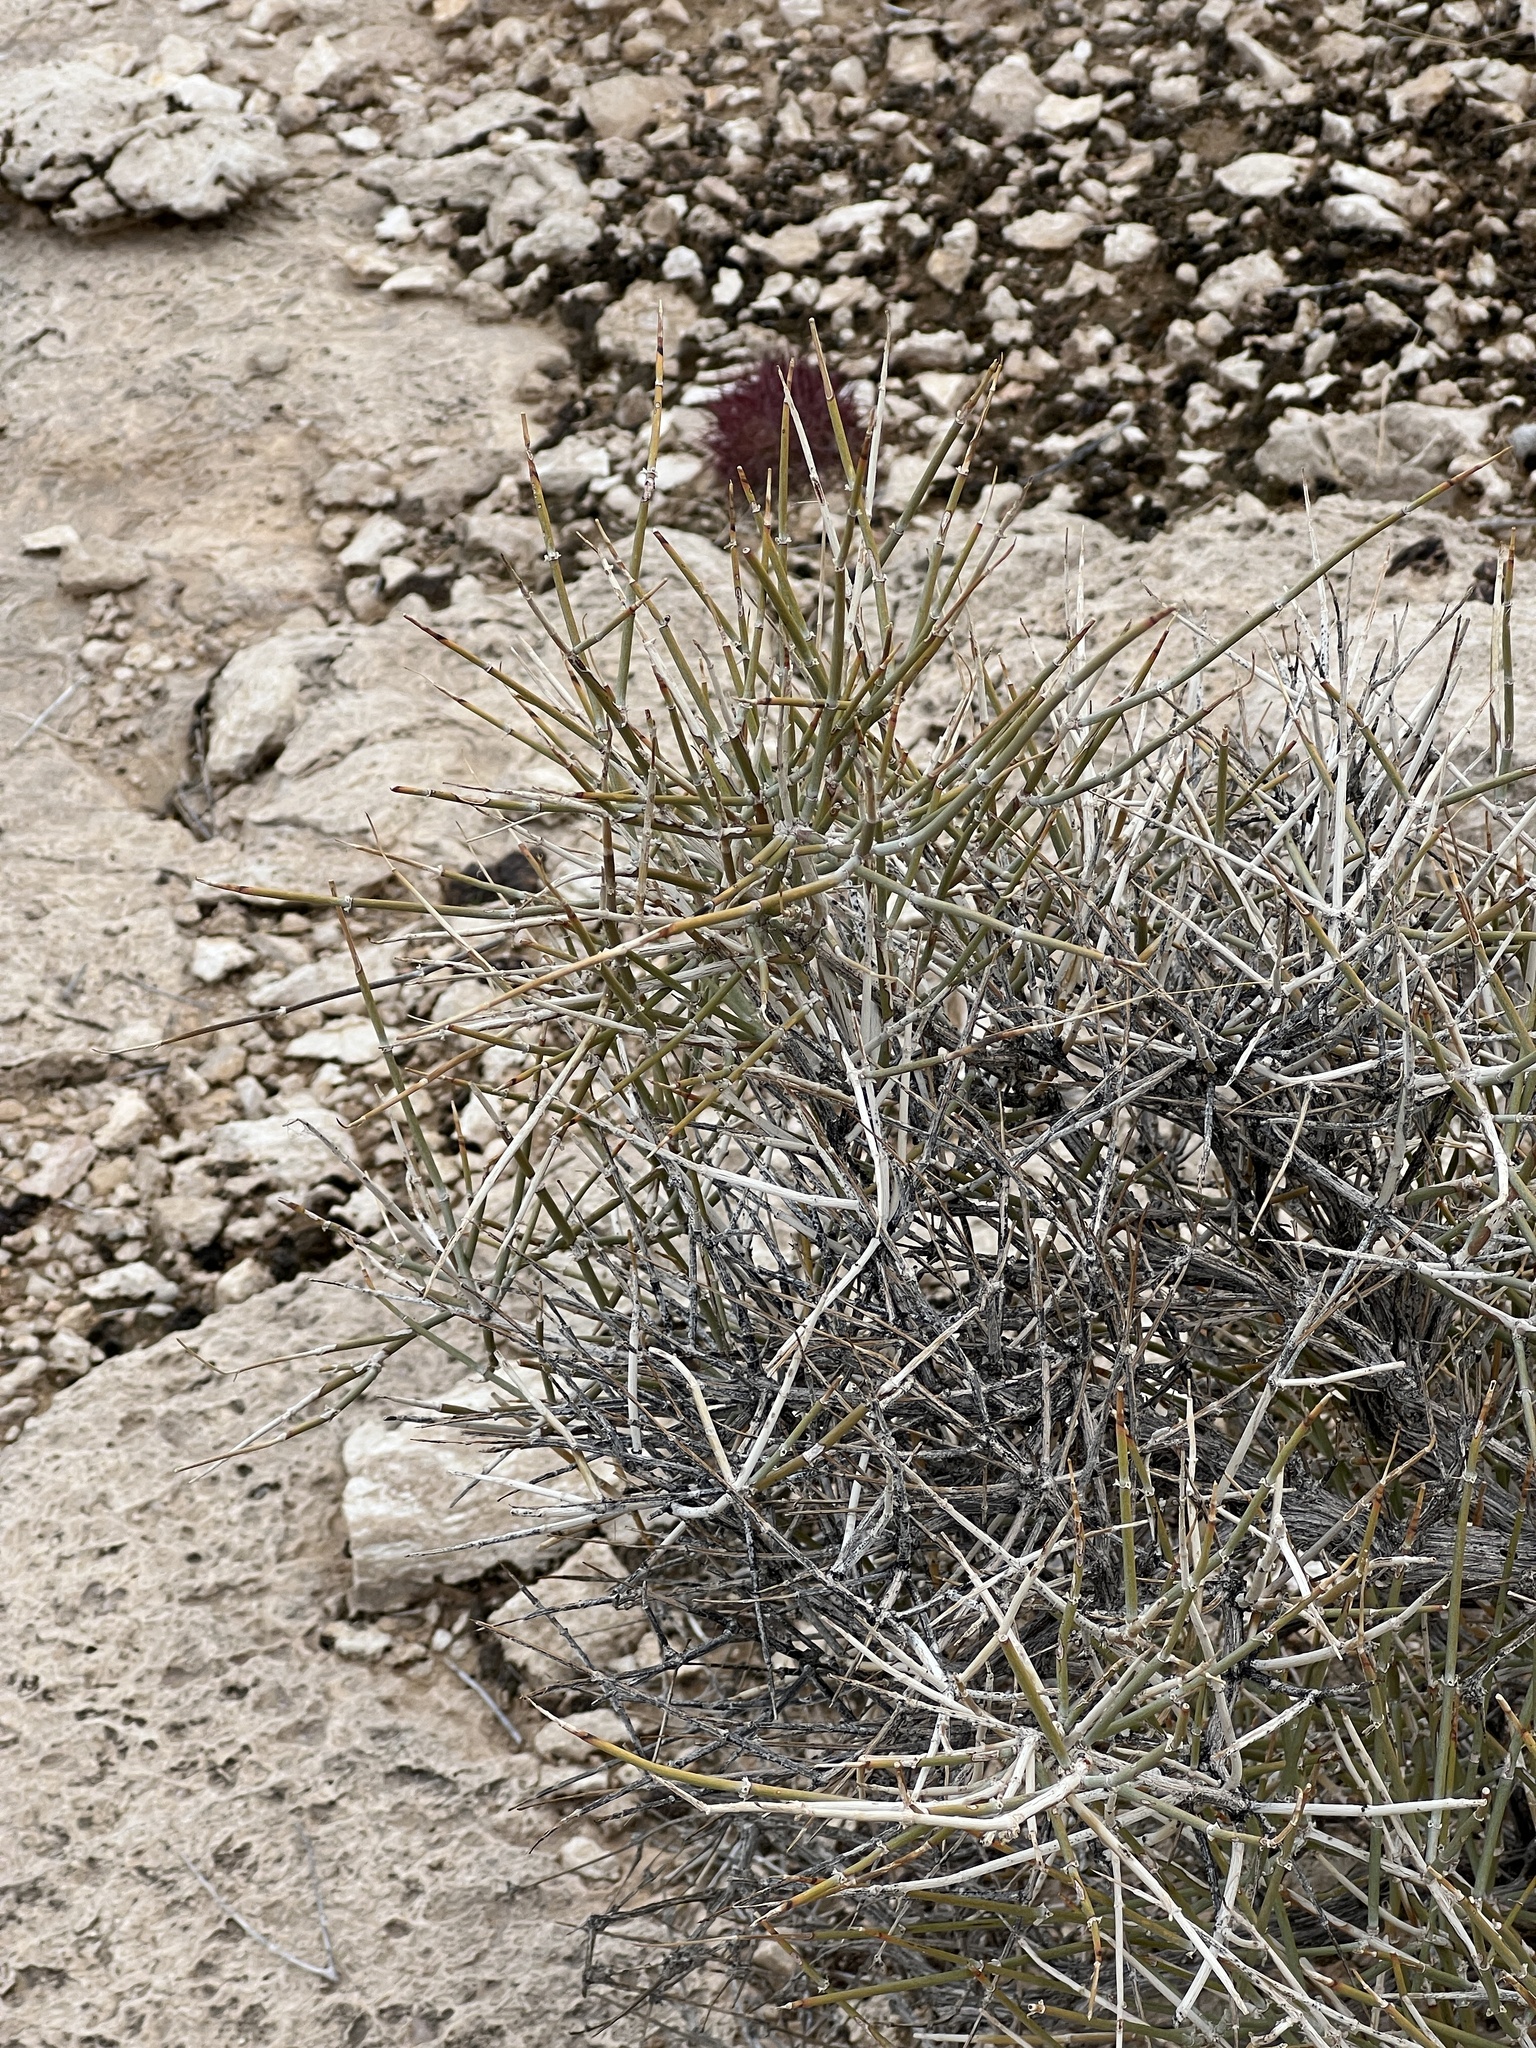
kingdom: Plantae
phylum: Tracheophyta
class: Gnetopsida
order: Ephedrales
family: Ephedraceae
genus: Ephedra
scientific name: Ephedra nevadensis
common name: Gray ephedra
